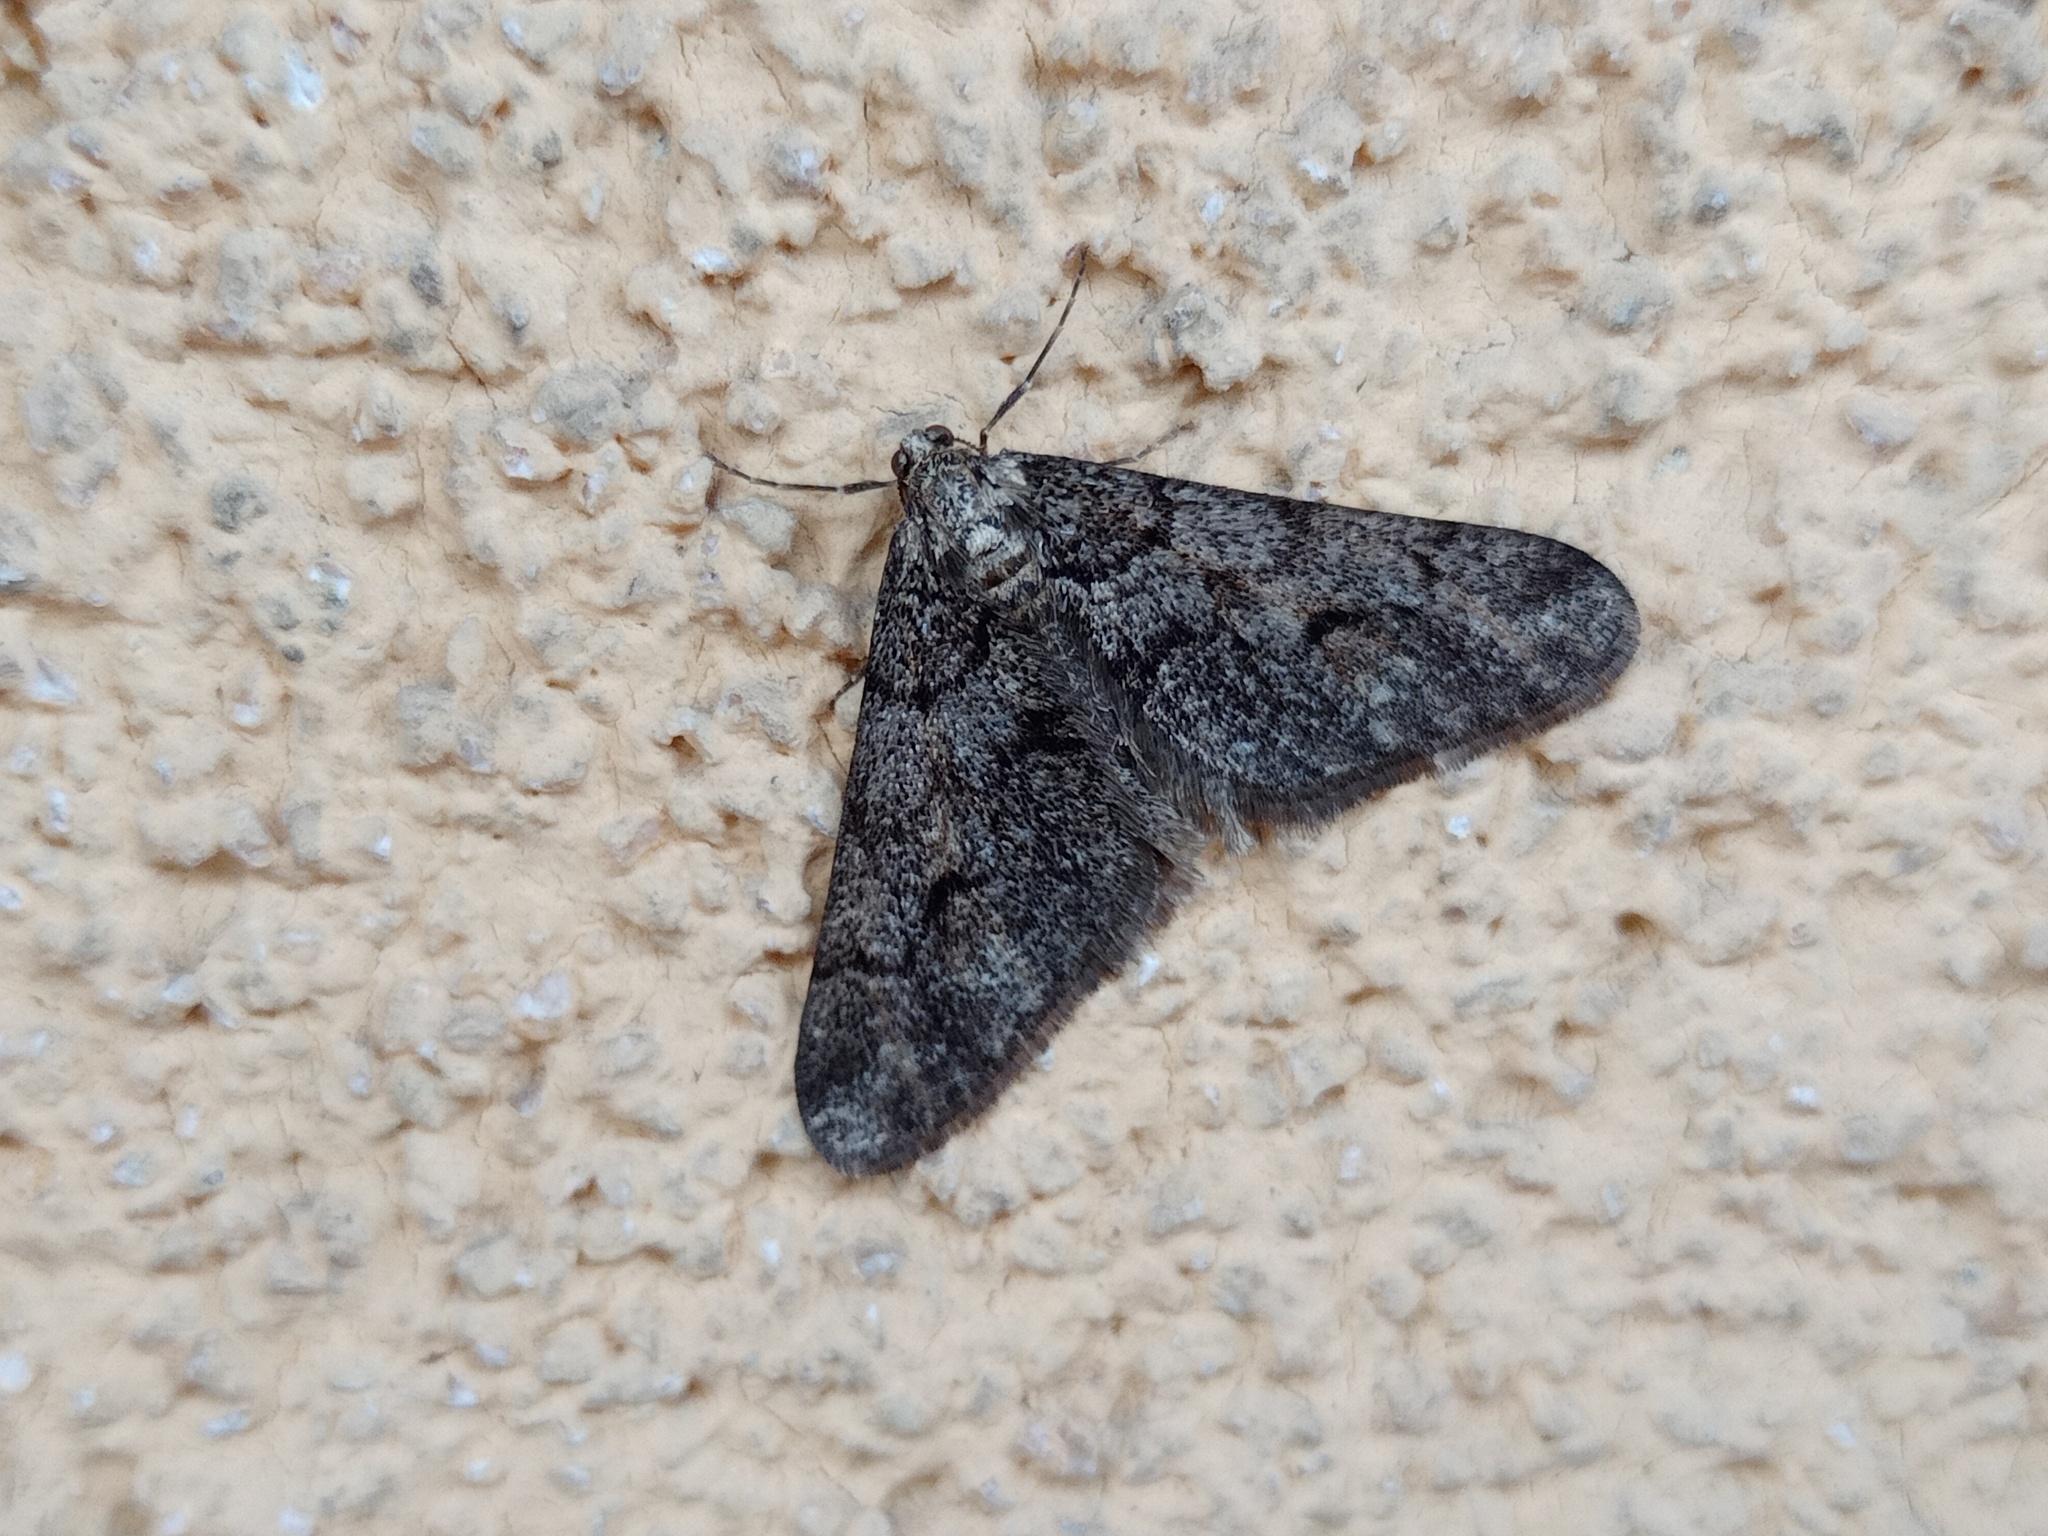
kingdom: Animalia
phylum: Arthropoda
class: Insecta
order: Lepidoptera
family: Geometridae
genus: Agriopis
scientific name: Agriopis leucophaearia
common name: Spring usher
